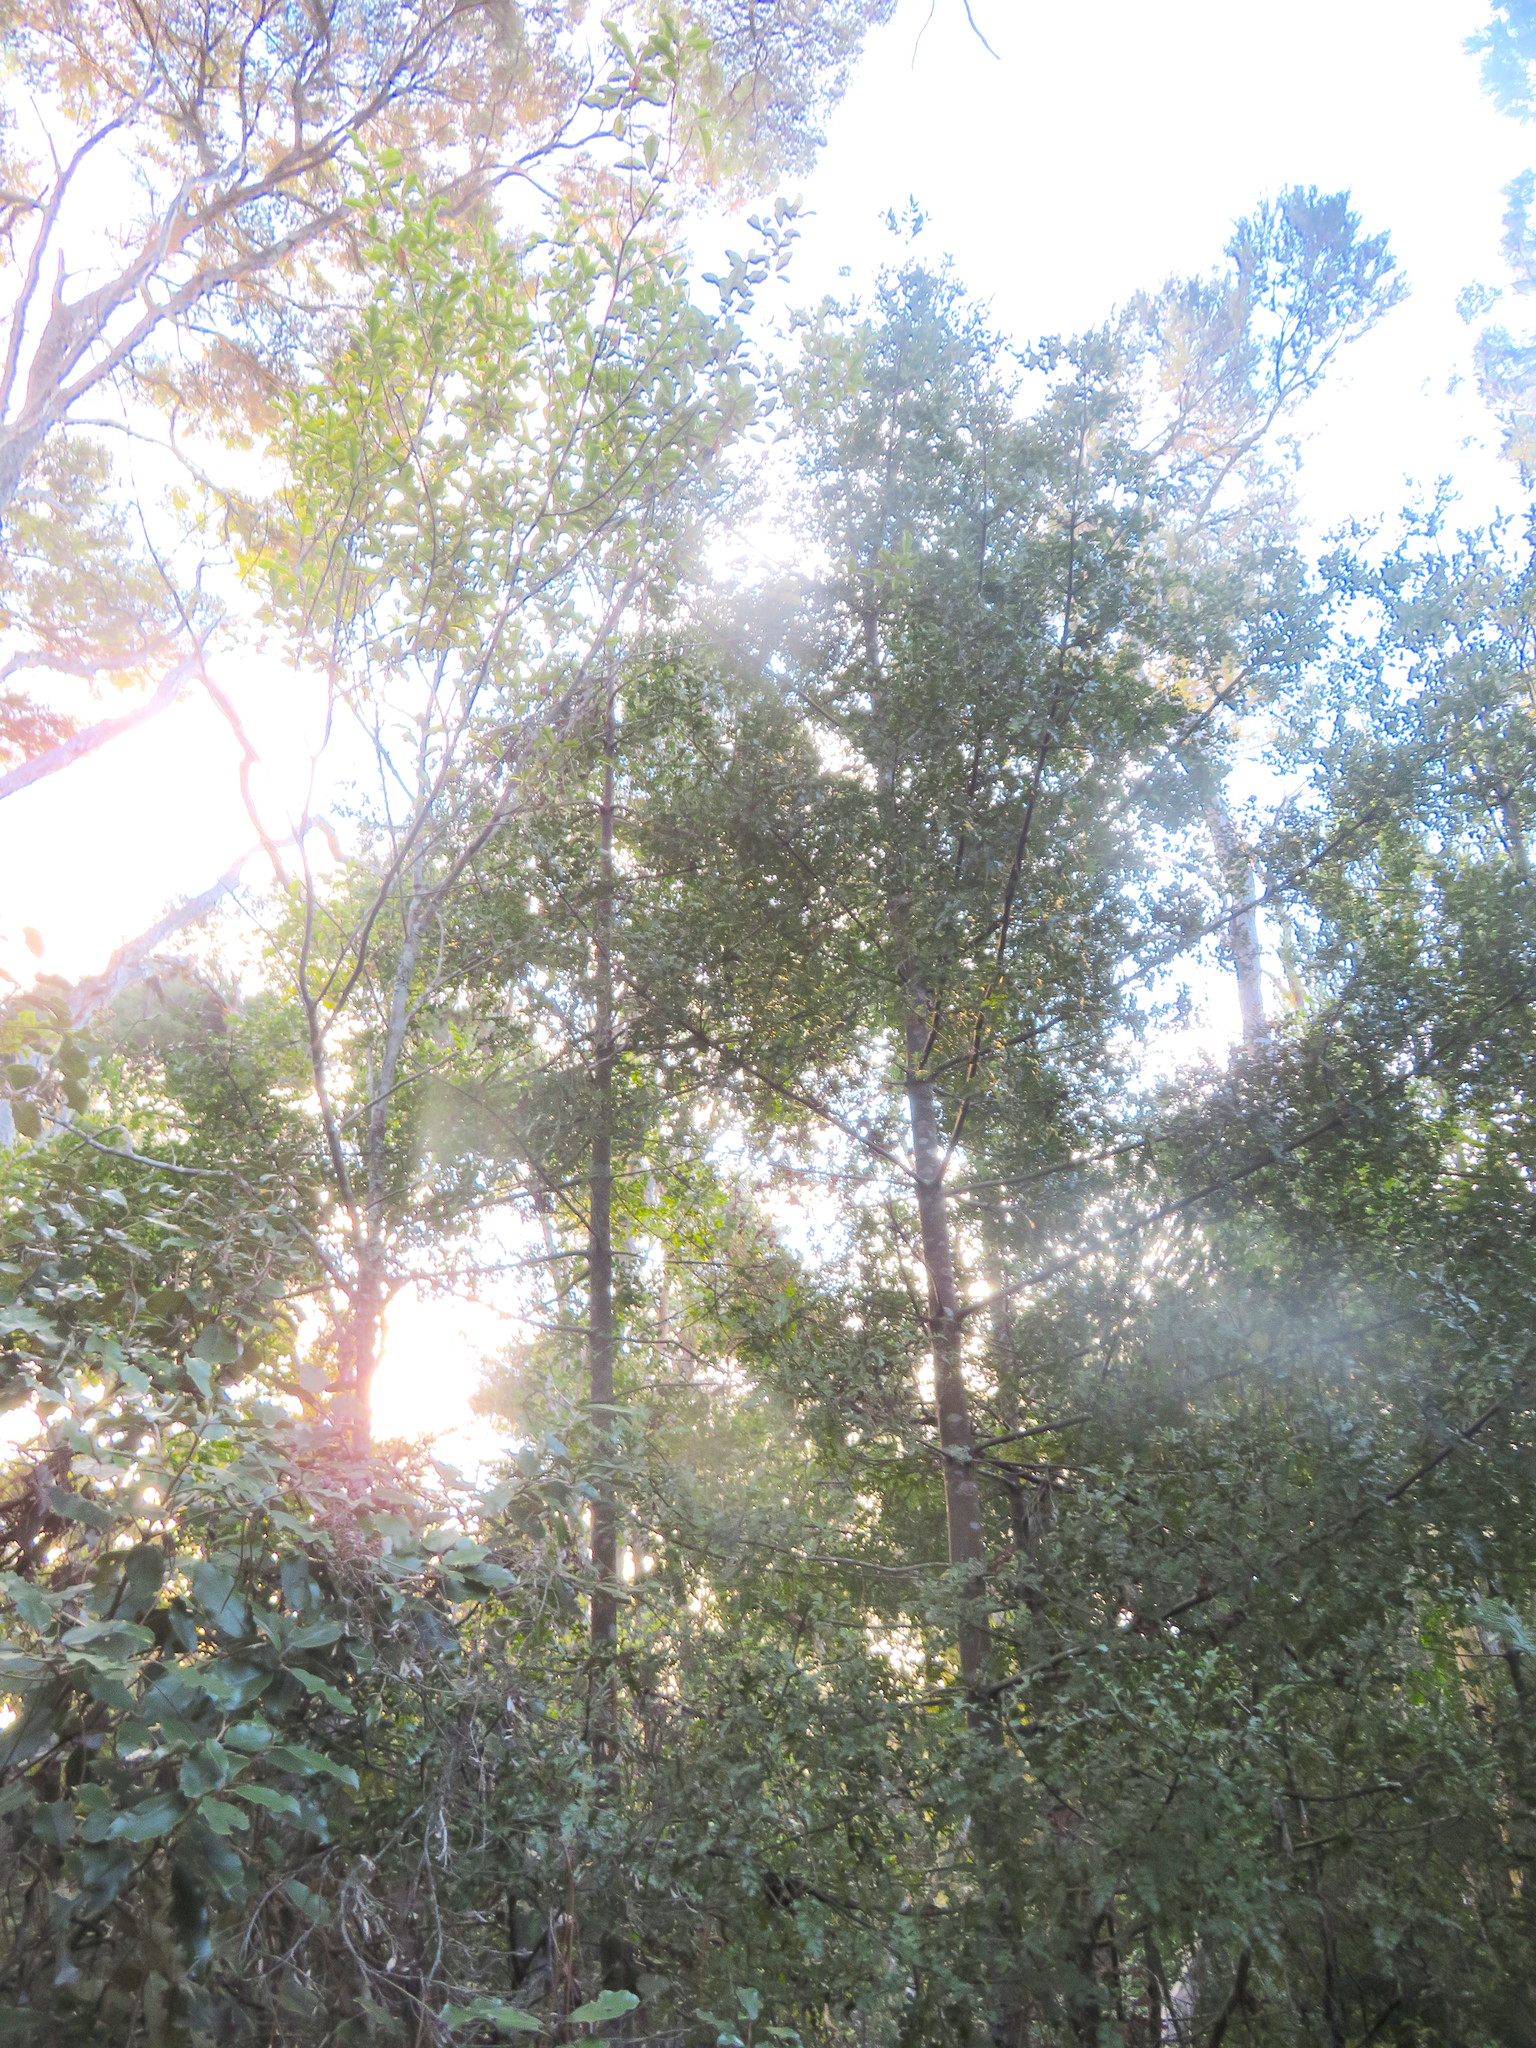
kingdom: Plantae
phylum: Tracheophyta
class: Pinopsida
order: Pinales
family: Phyllocladaceae
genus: Phyllocladus
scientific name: Phyllocladus trichomanoides
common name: Celery pine
